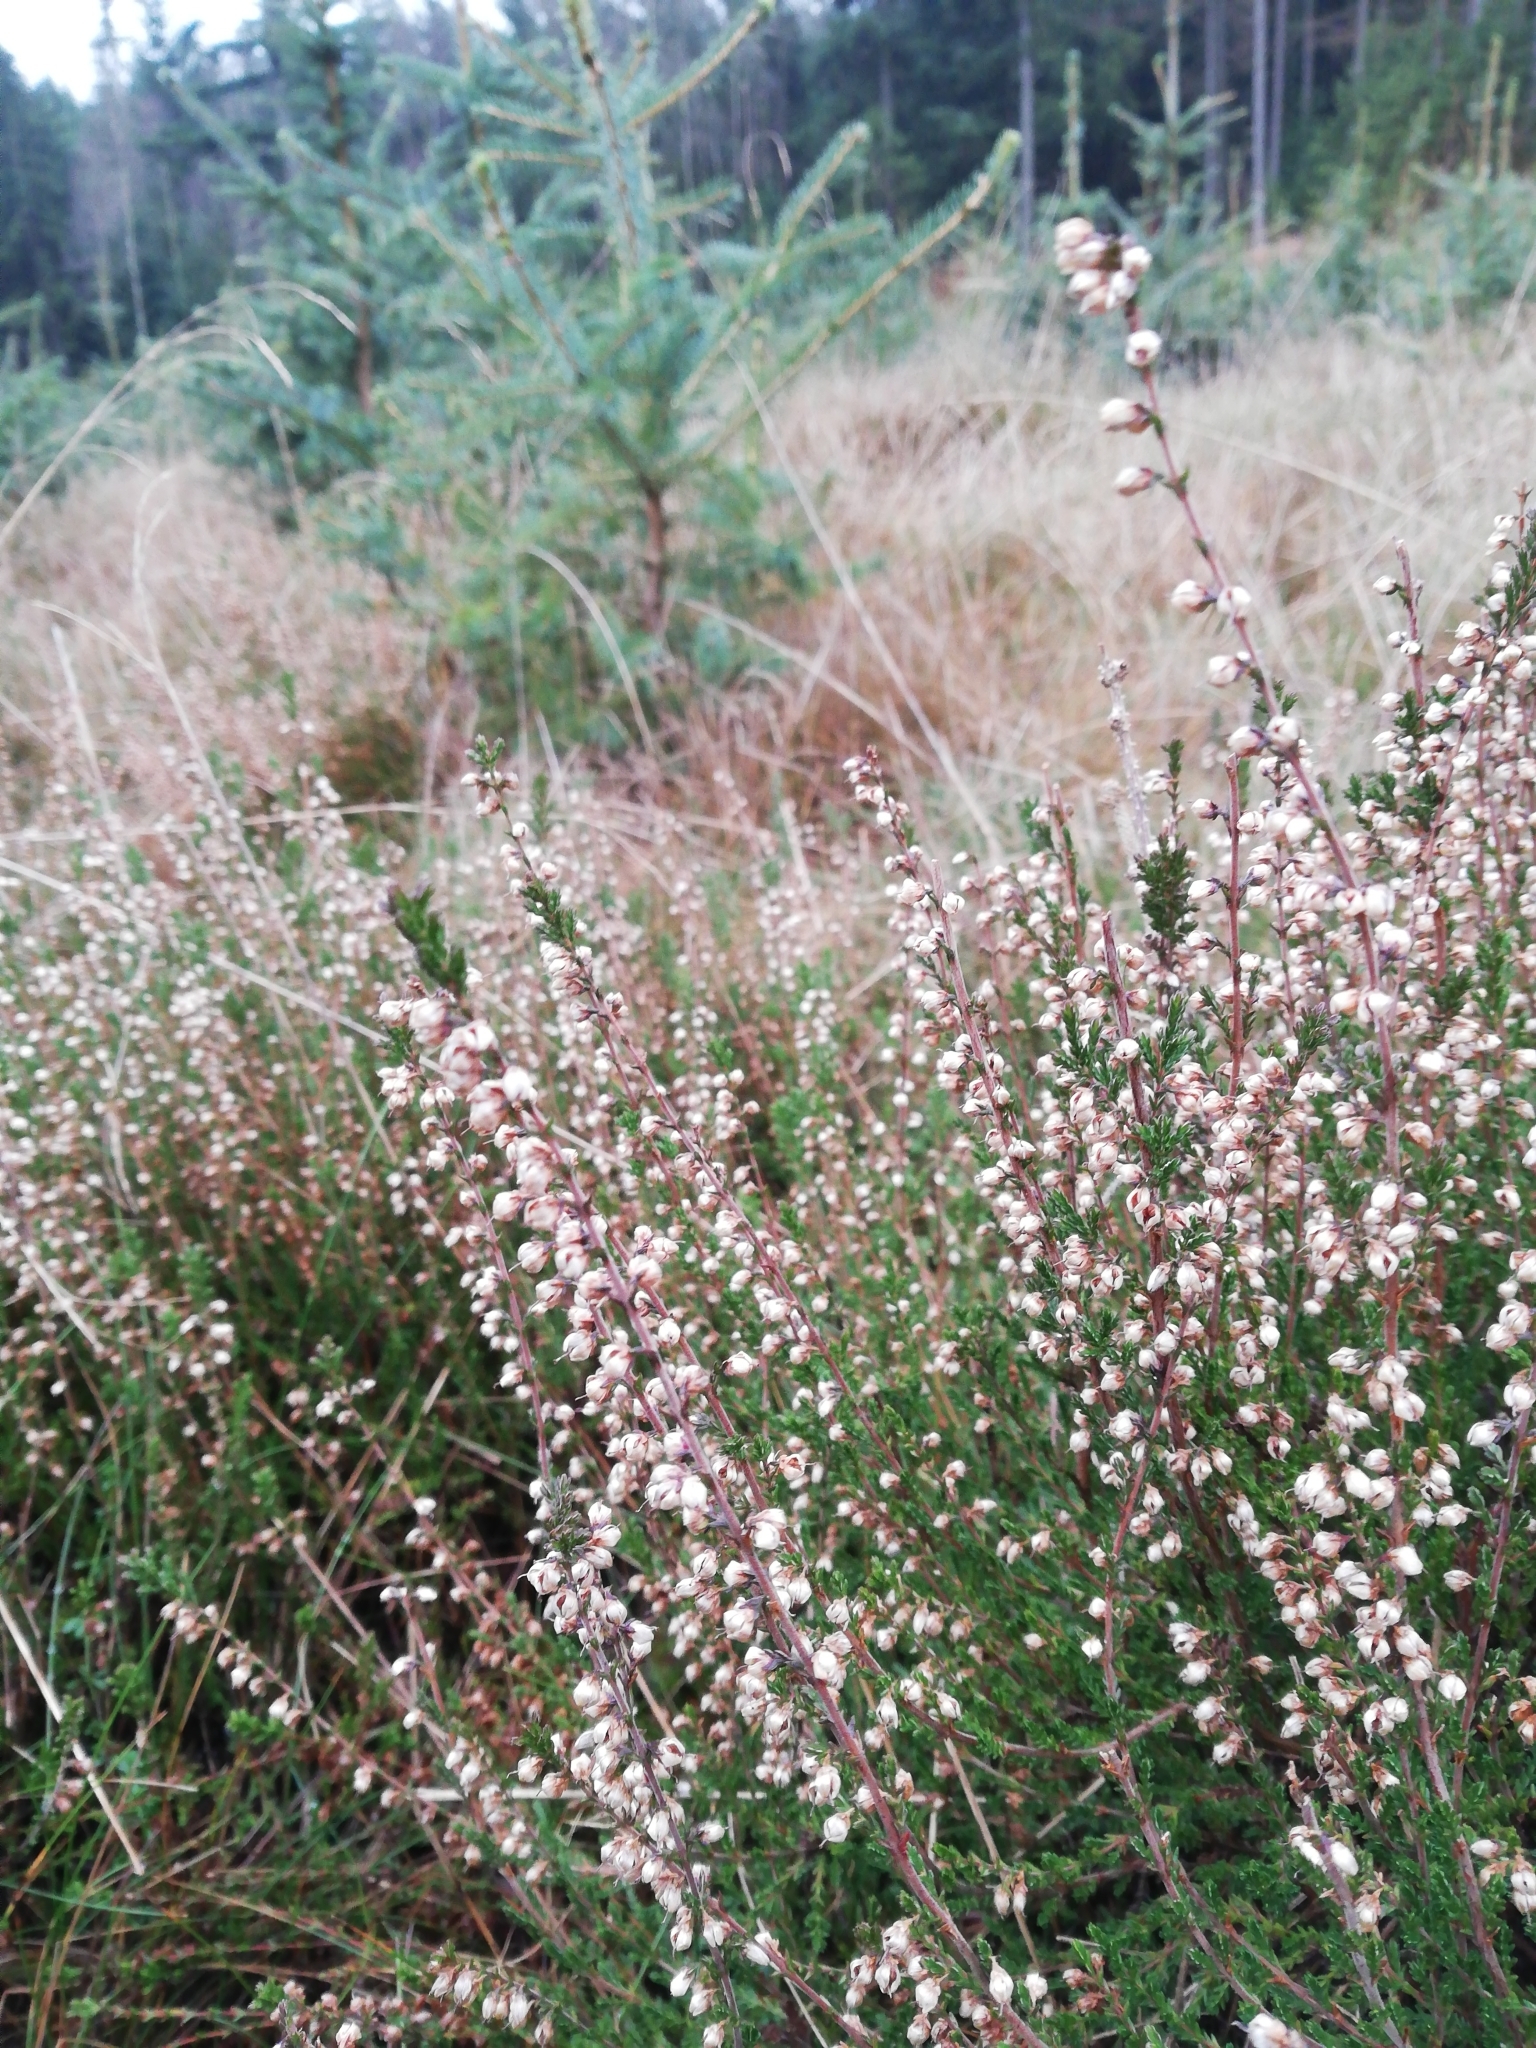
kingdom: Plantae
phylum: Tracheophyta
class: Magnoliopsida
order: Ericales
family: Ericaceae
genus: Calluna
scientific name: Calluna vulgaris
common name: Heather
